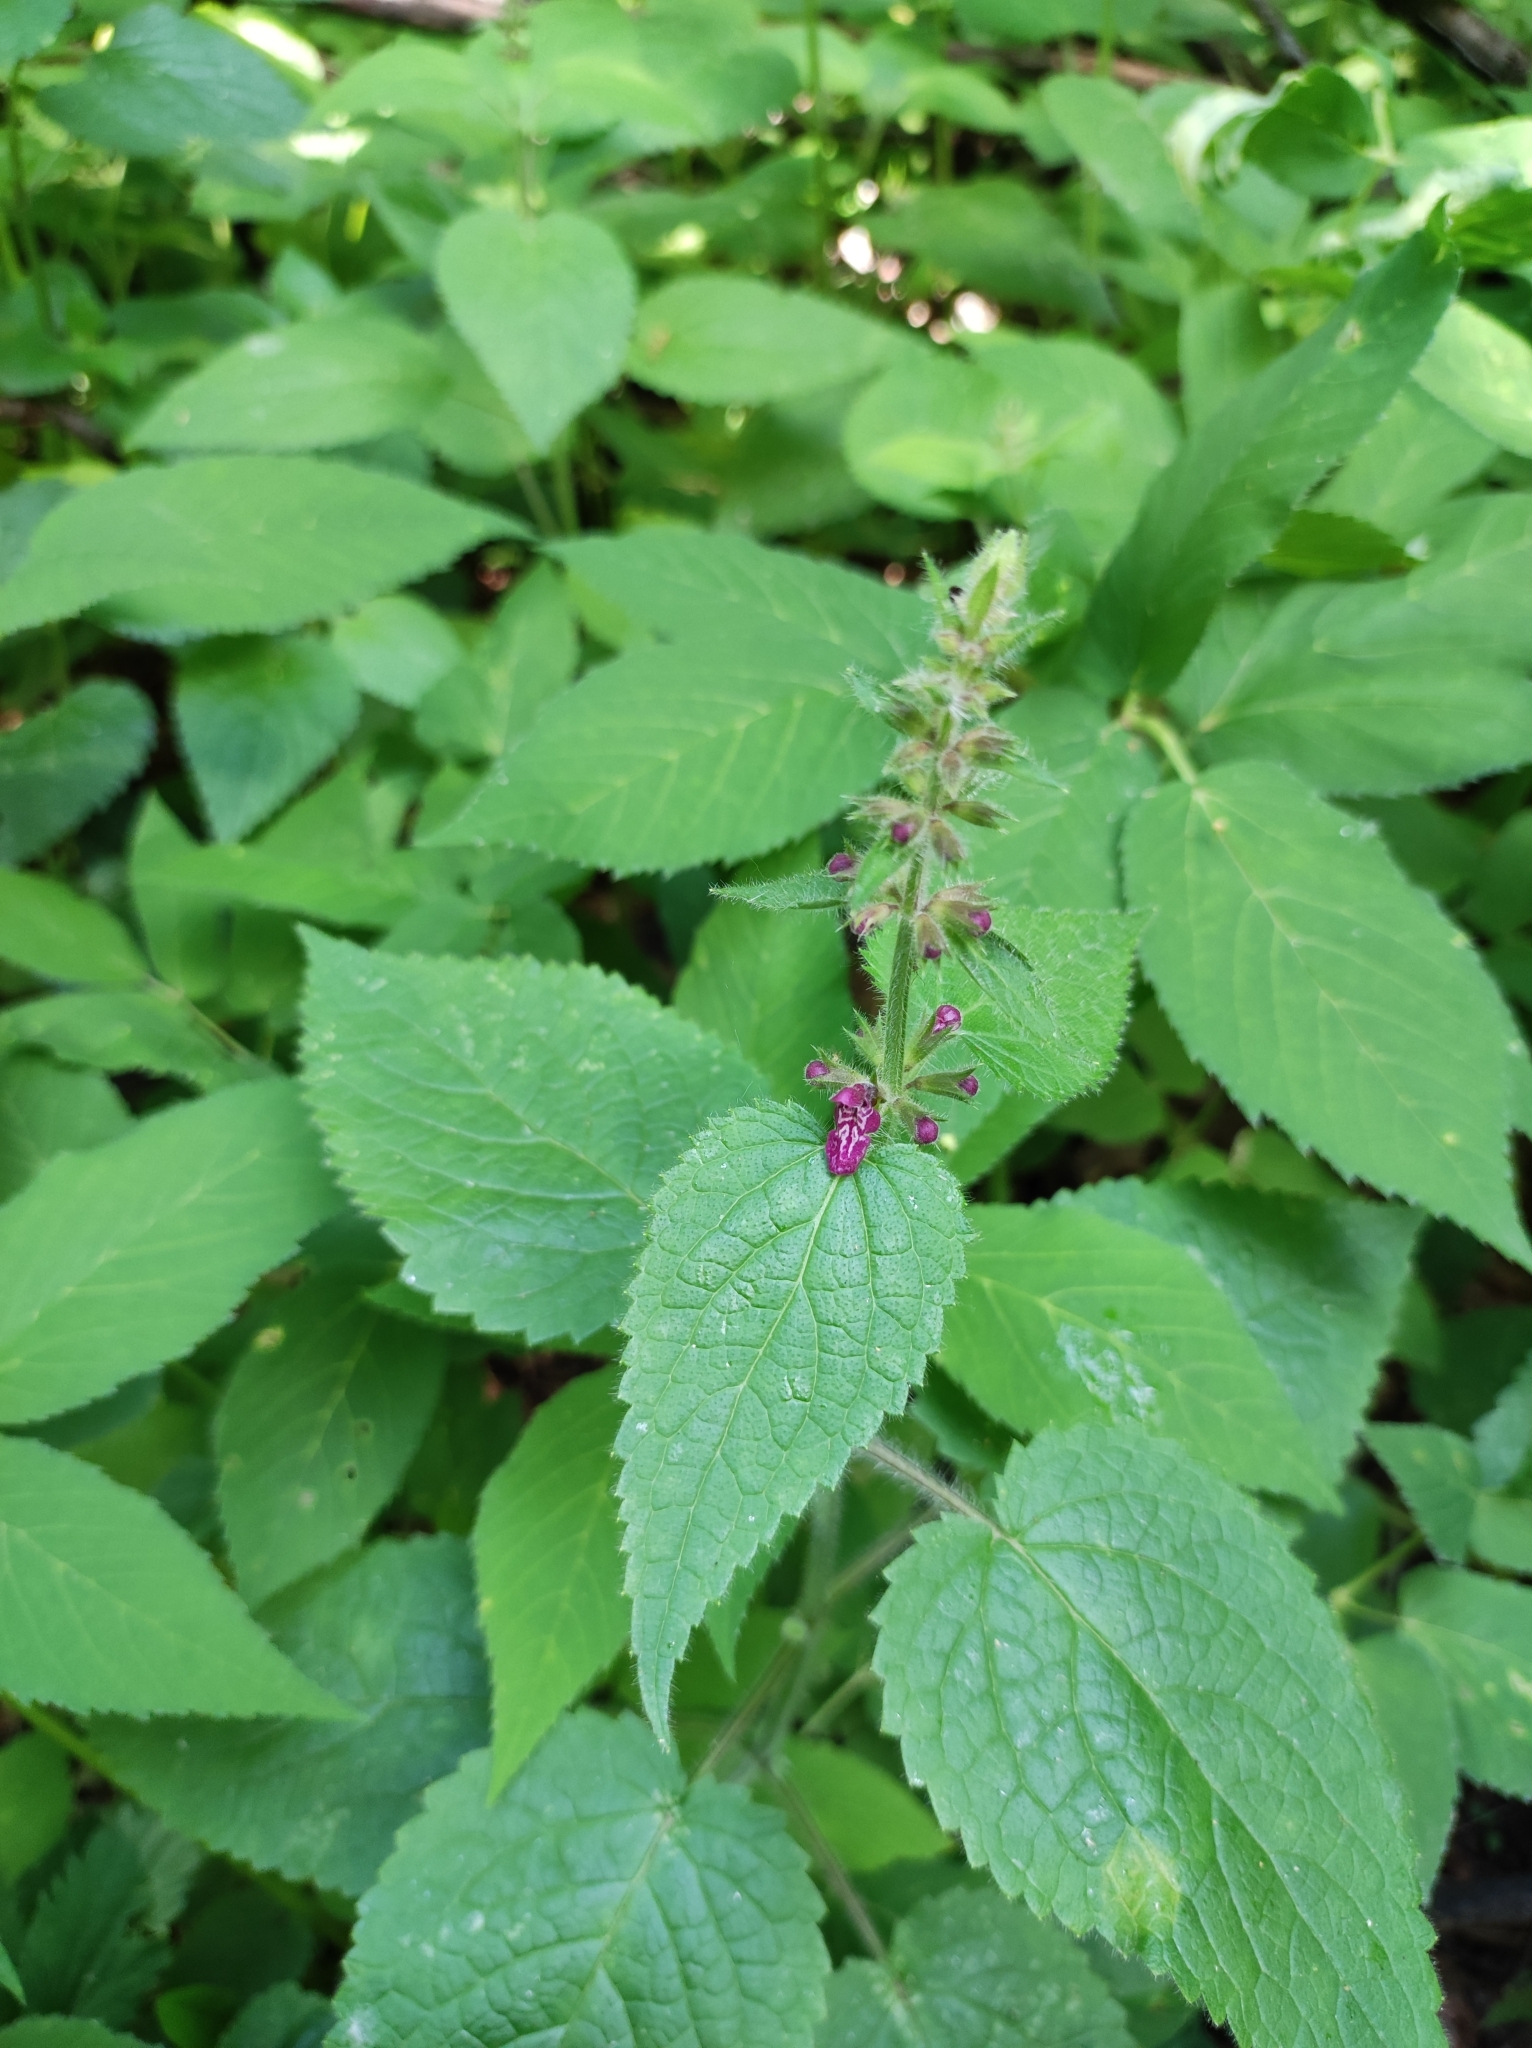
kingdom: Plantae
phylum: Tracheophyta
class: Magnoliopsida
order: Lamiales
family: Lamiaceae
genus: Stachys
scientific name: Stachys sylvatica
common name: Hedge woundwort
